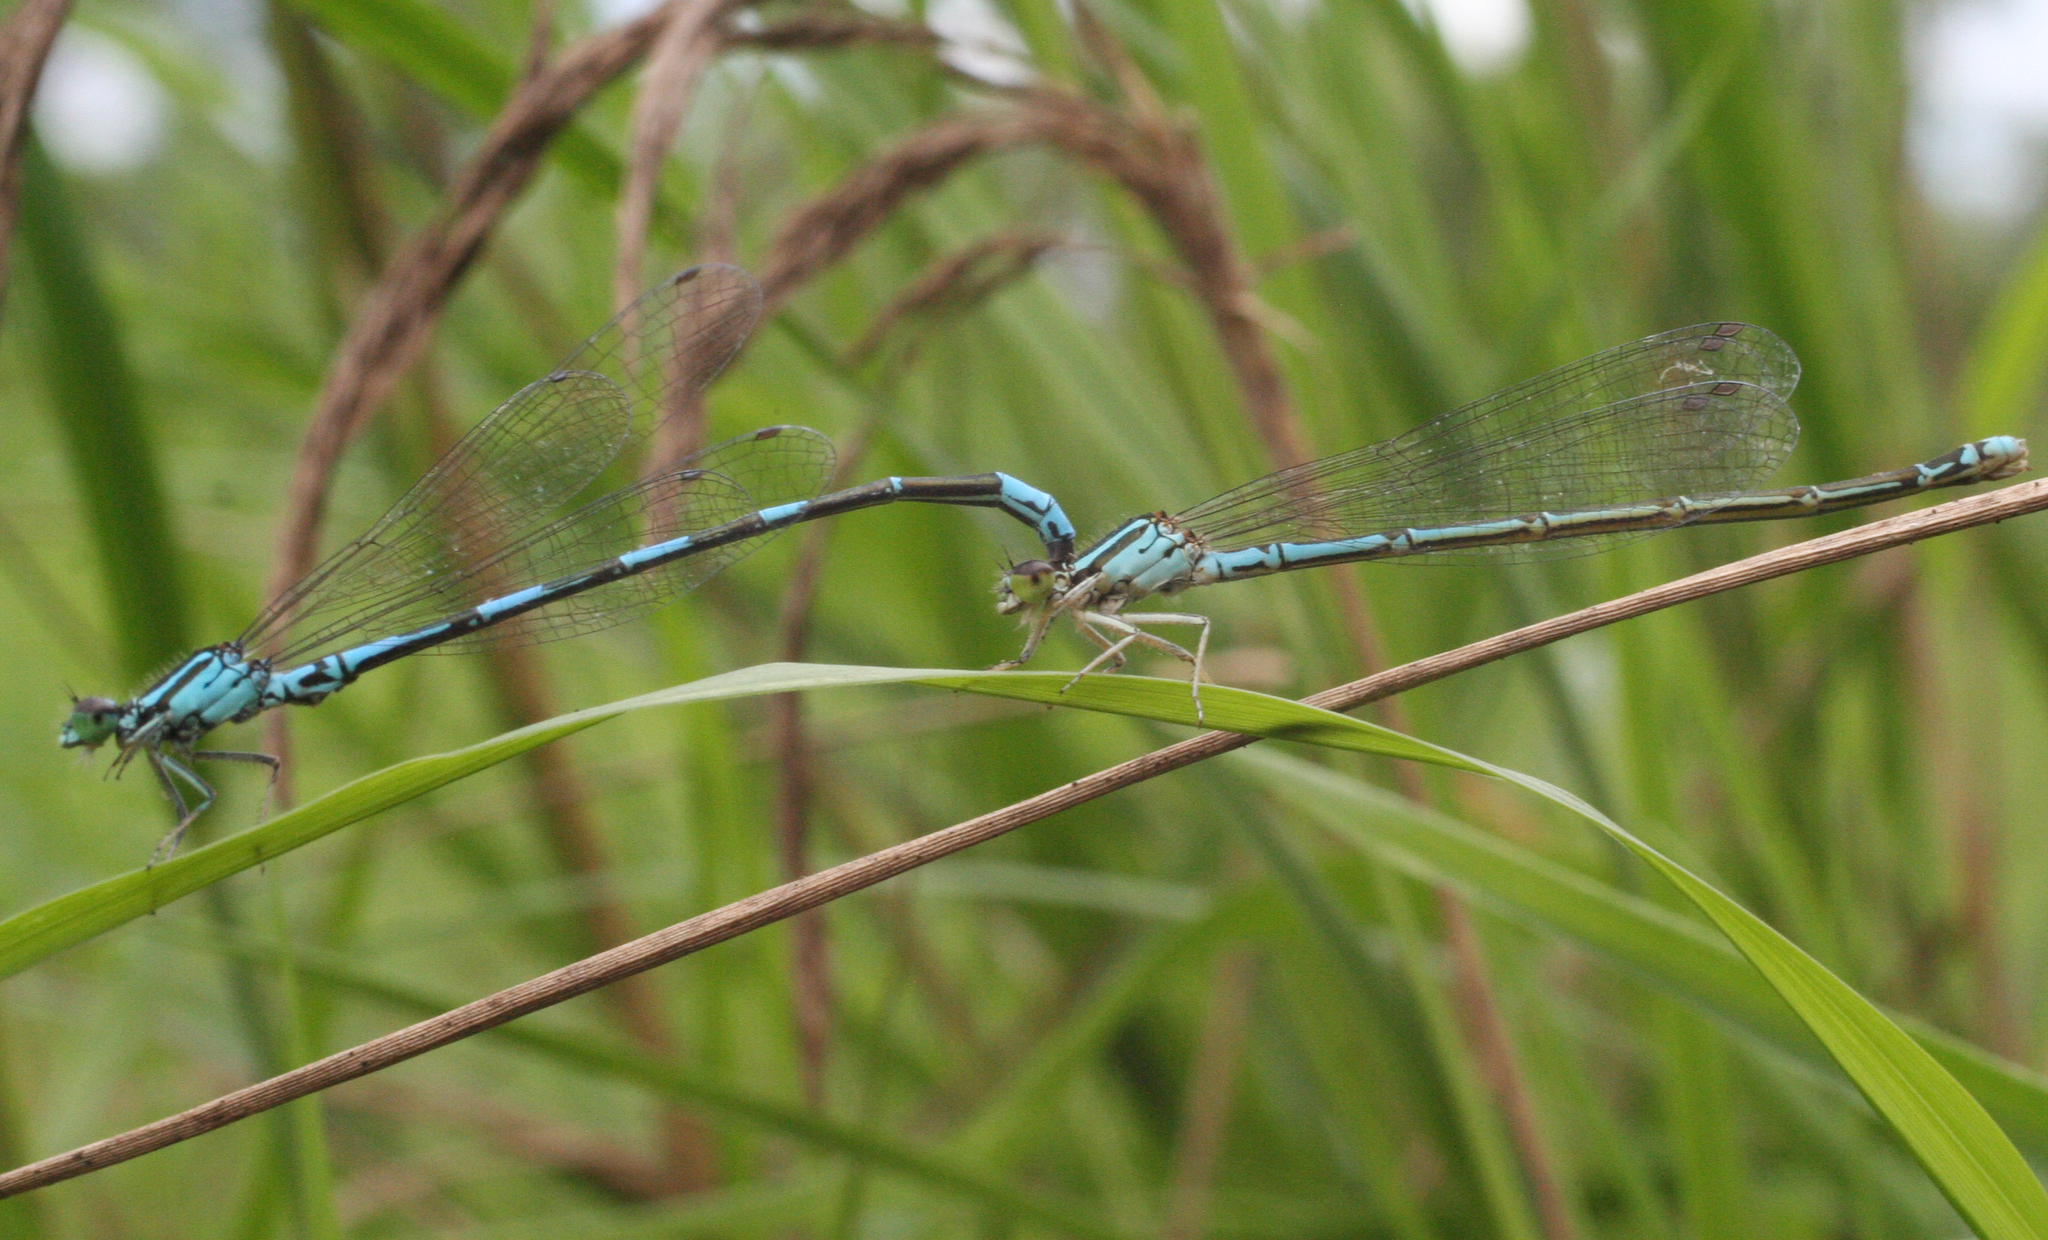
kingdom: Animalia
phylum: Arthropoda
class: Insecta
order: Odonata
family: Coenagrionidae
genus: Coenagrion
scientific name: Coenagrion johanssoni
